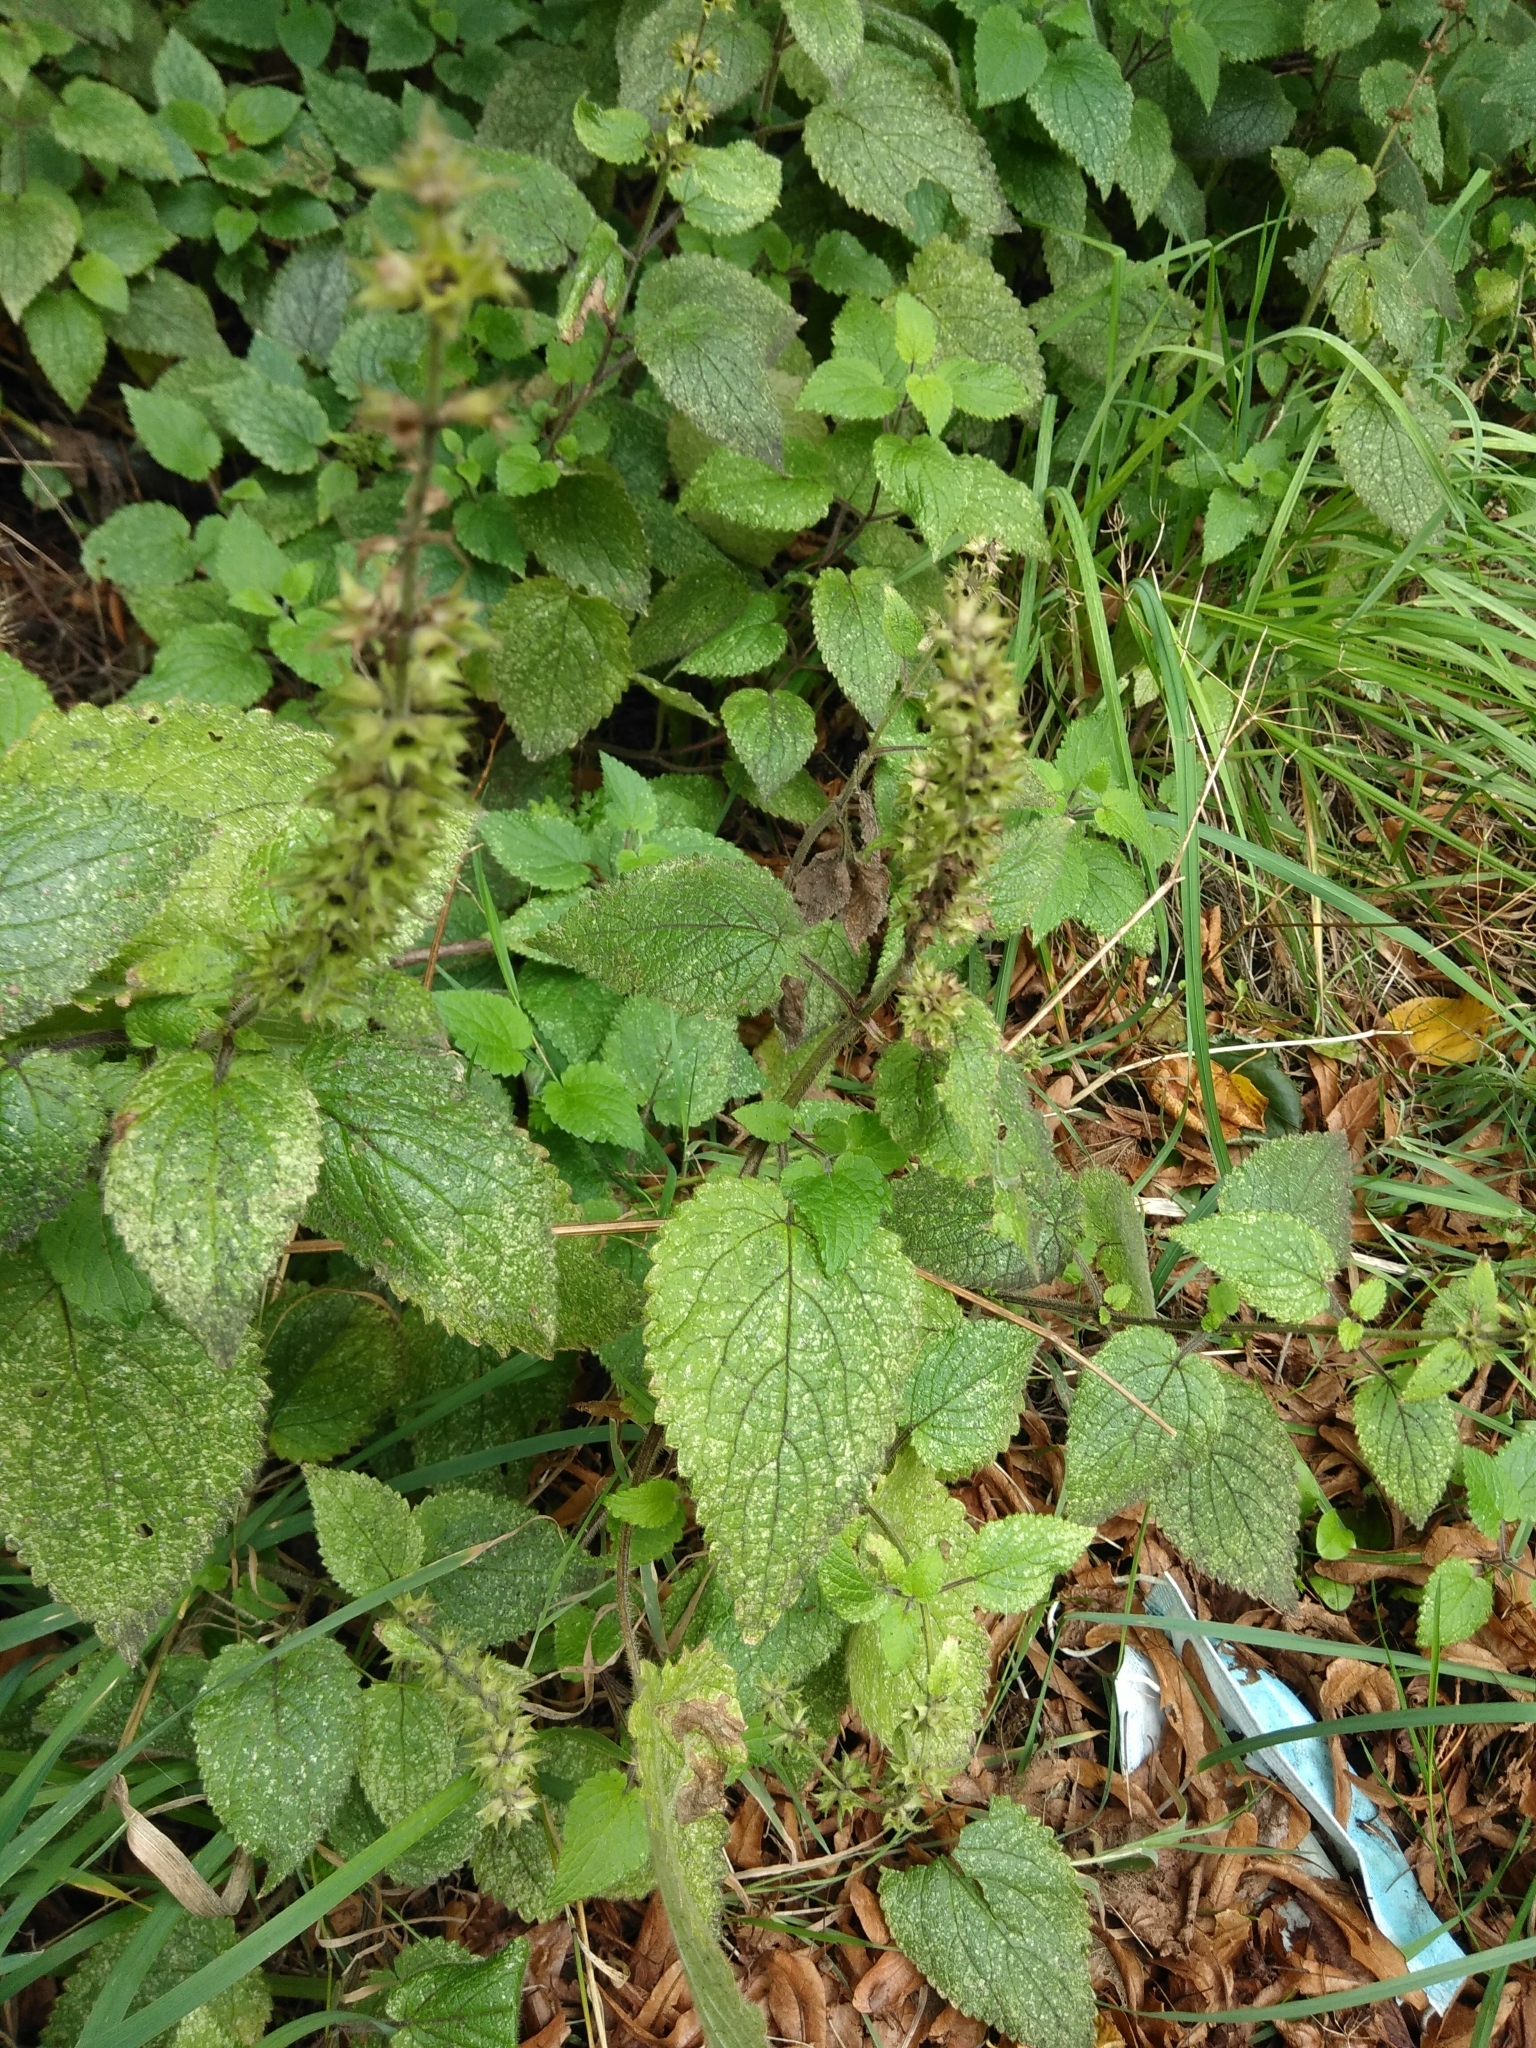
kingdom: Plantae
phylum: Tracheophyta
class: Magnoliopsida
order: Lamiales
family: Lamiaceae
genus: Stachys
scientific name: Stachys sylvatica
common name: Hedge woundwort
